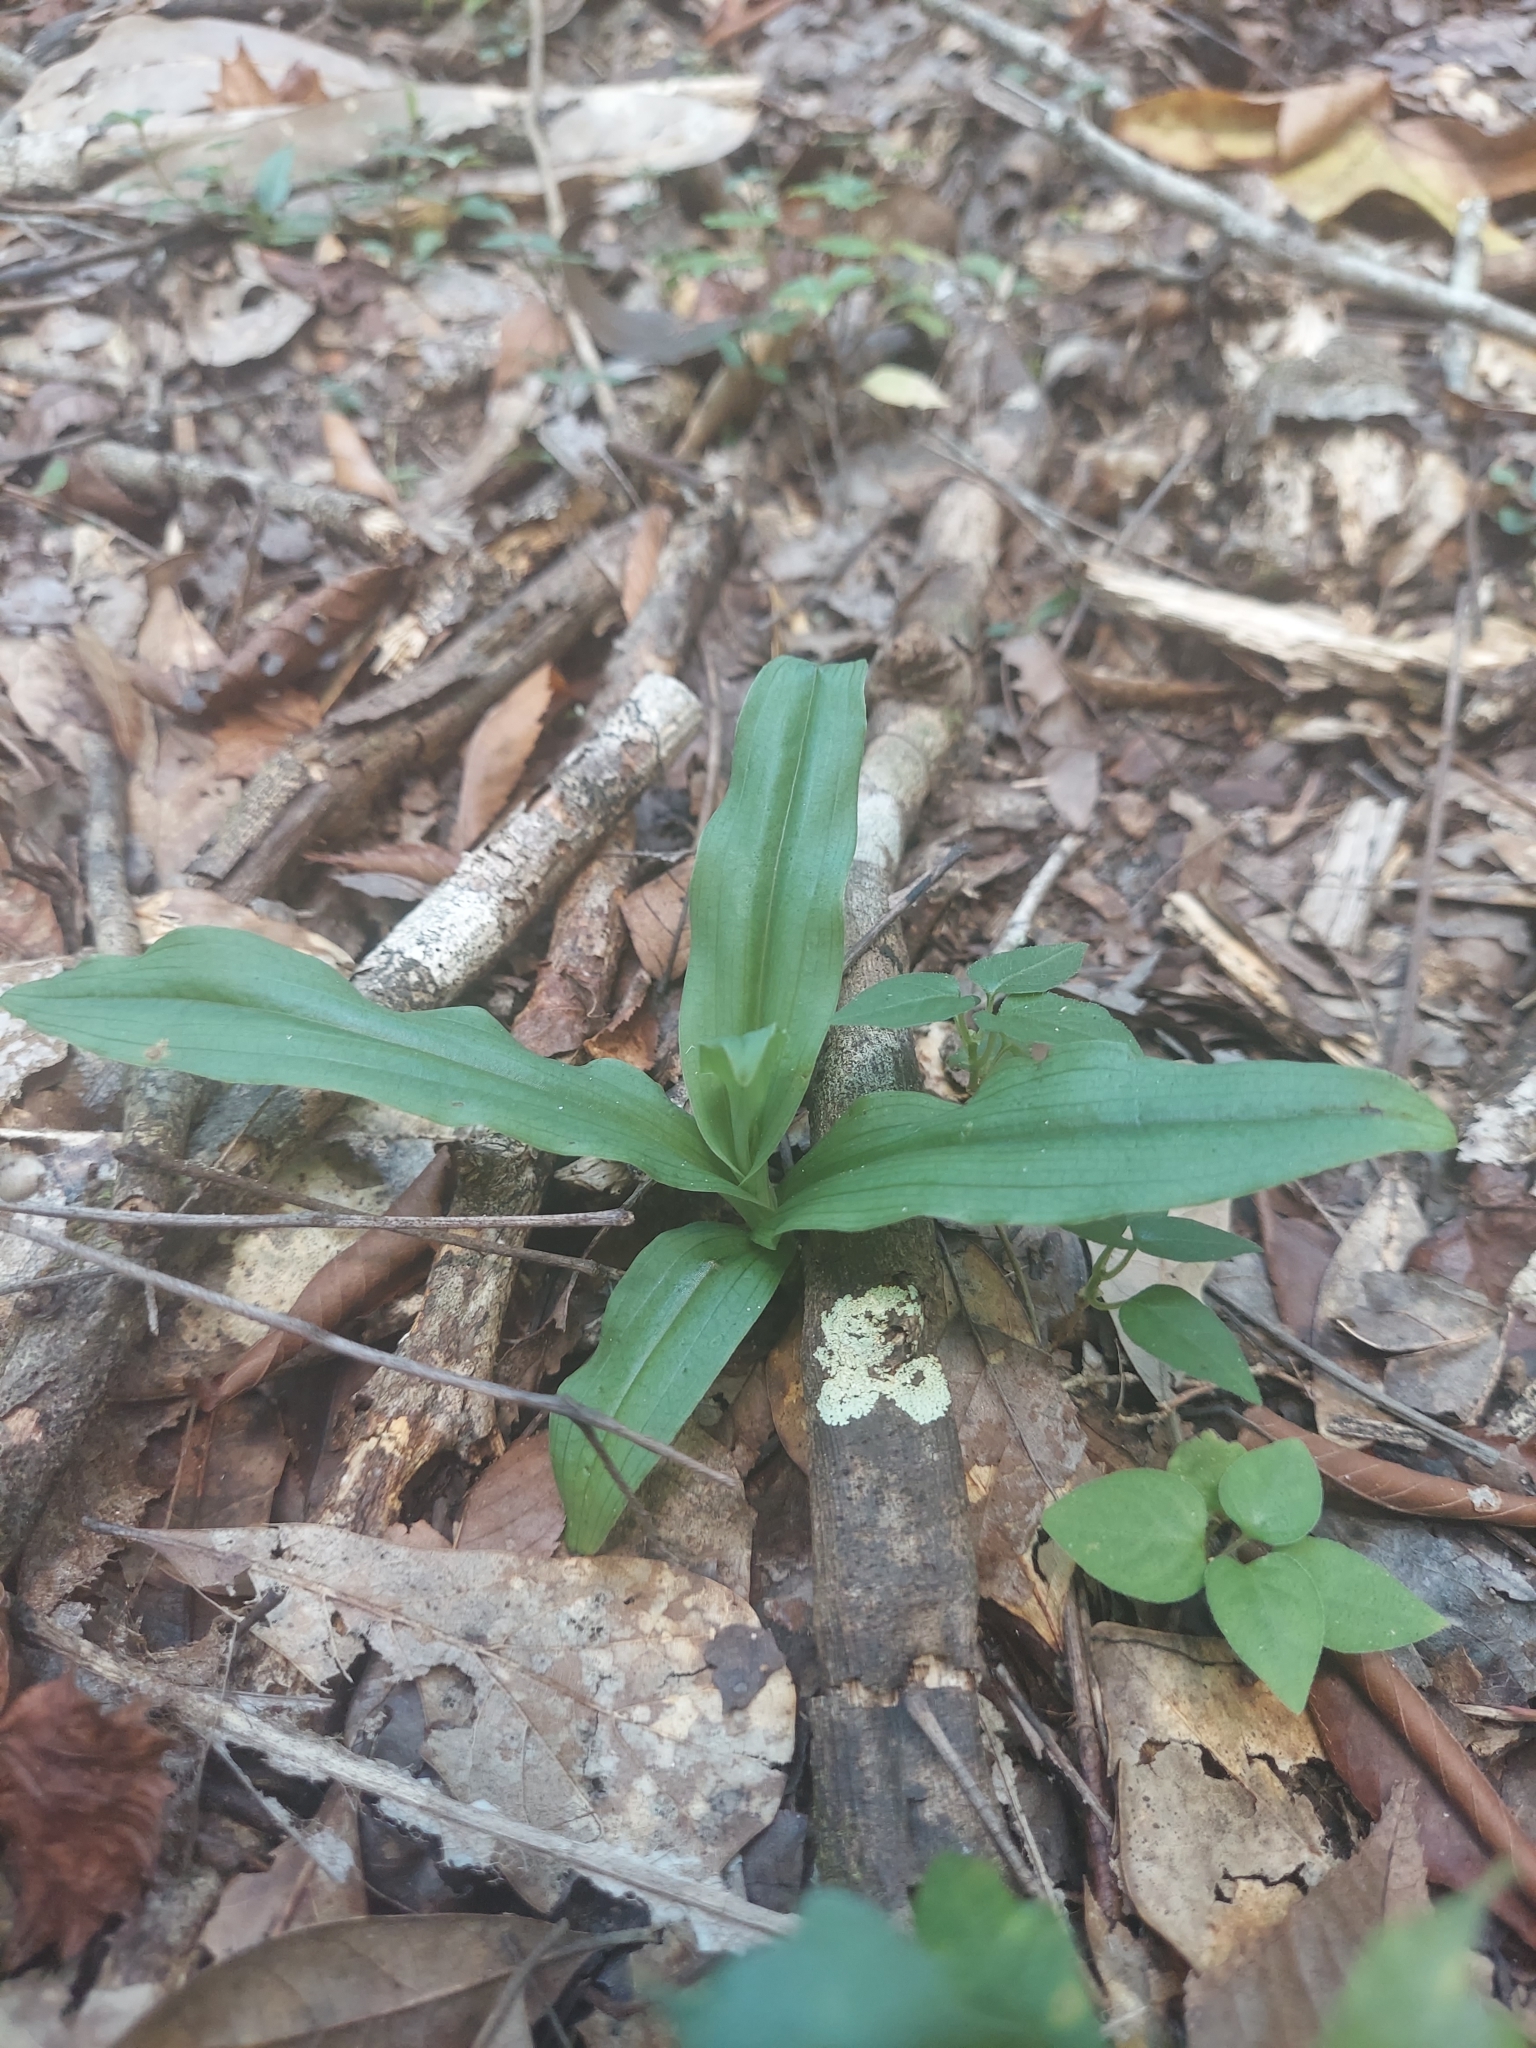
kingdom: Plantae
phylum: Tracheophyta
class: Liliopsida
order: Asparagales
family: Orchidaceae
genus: Habenaria
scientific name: Habenaria floribunda
